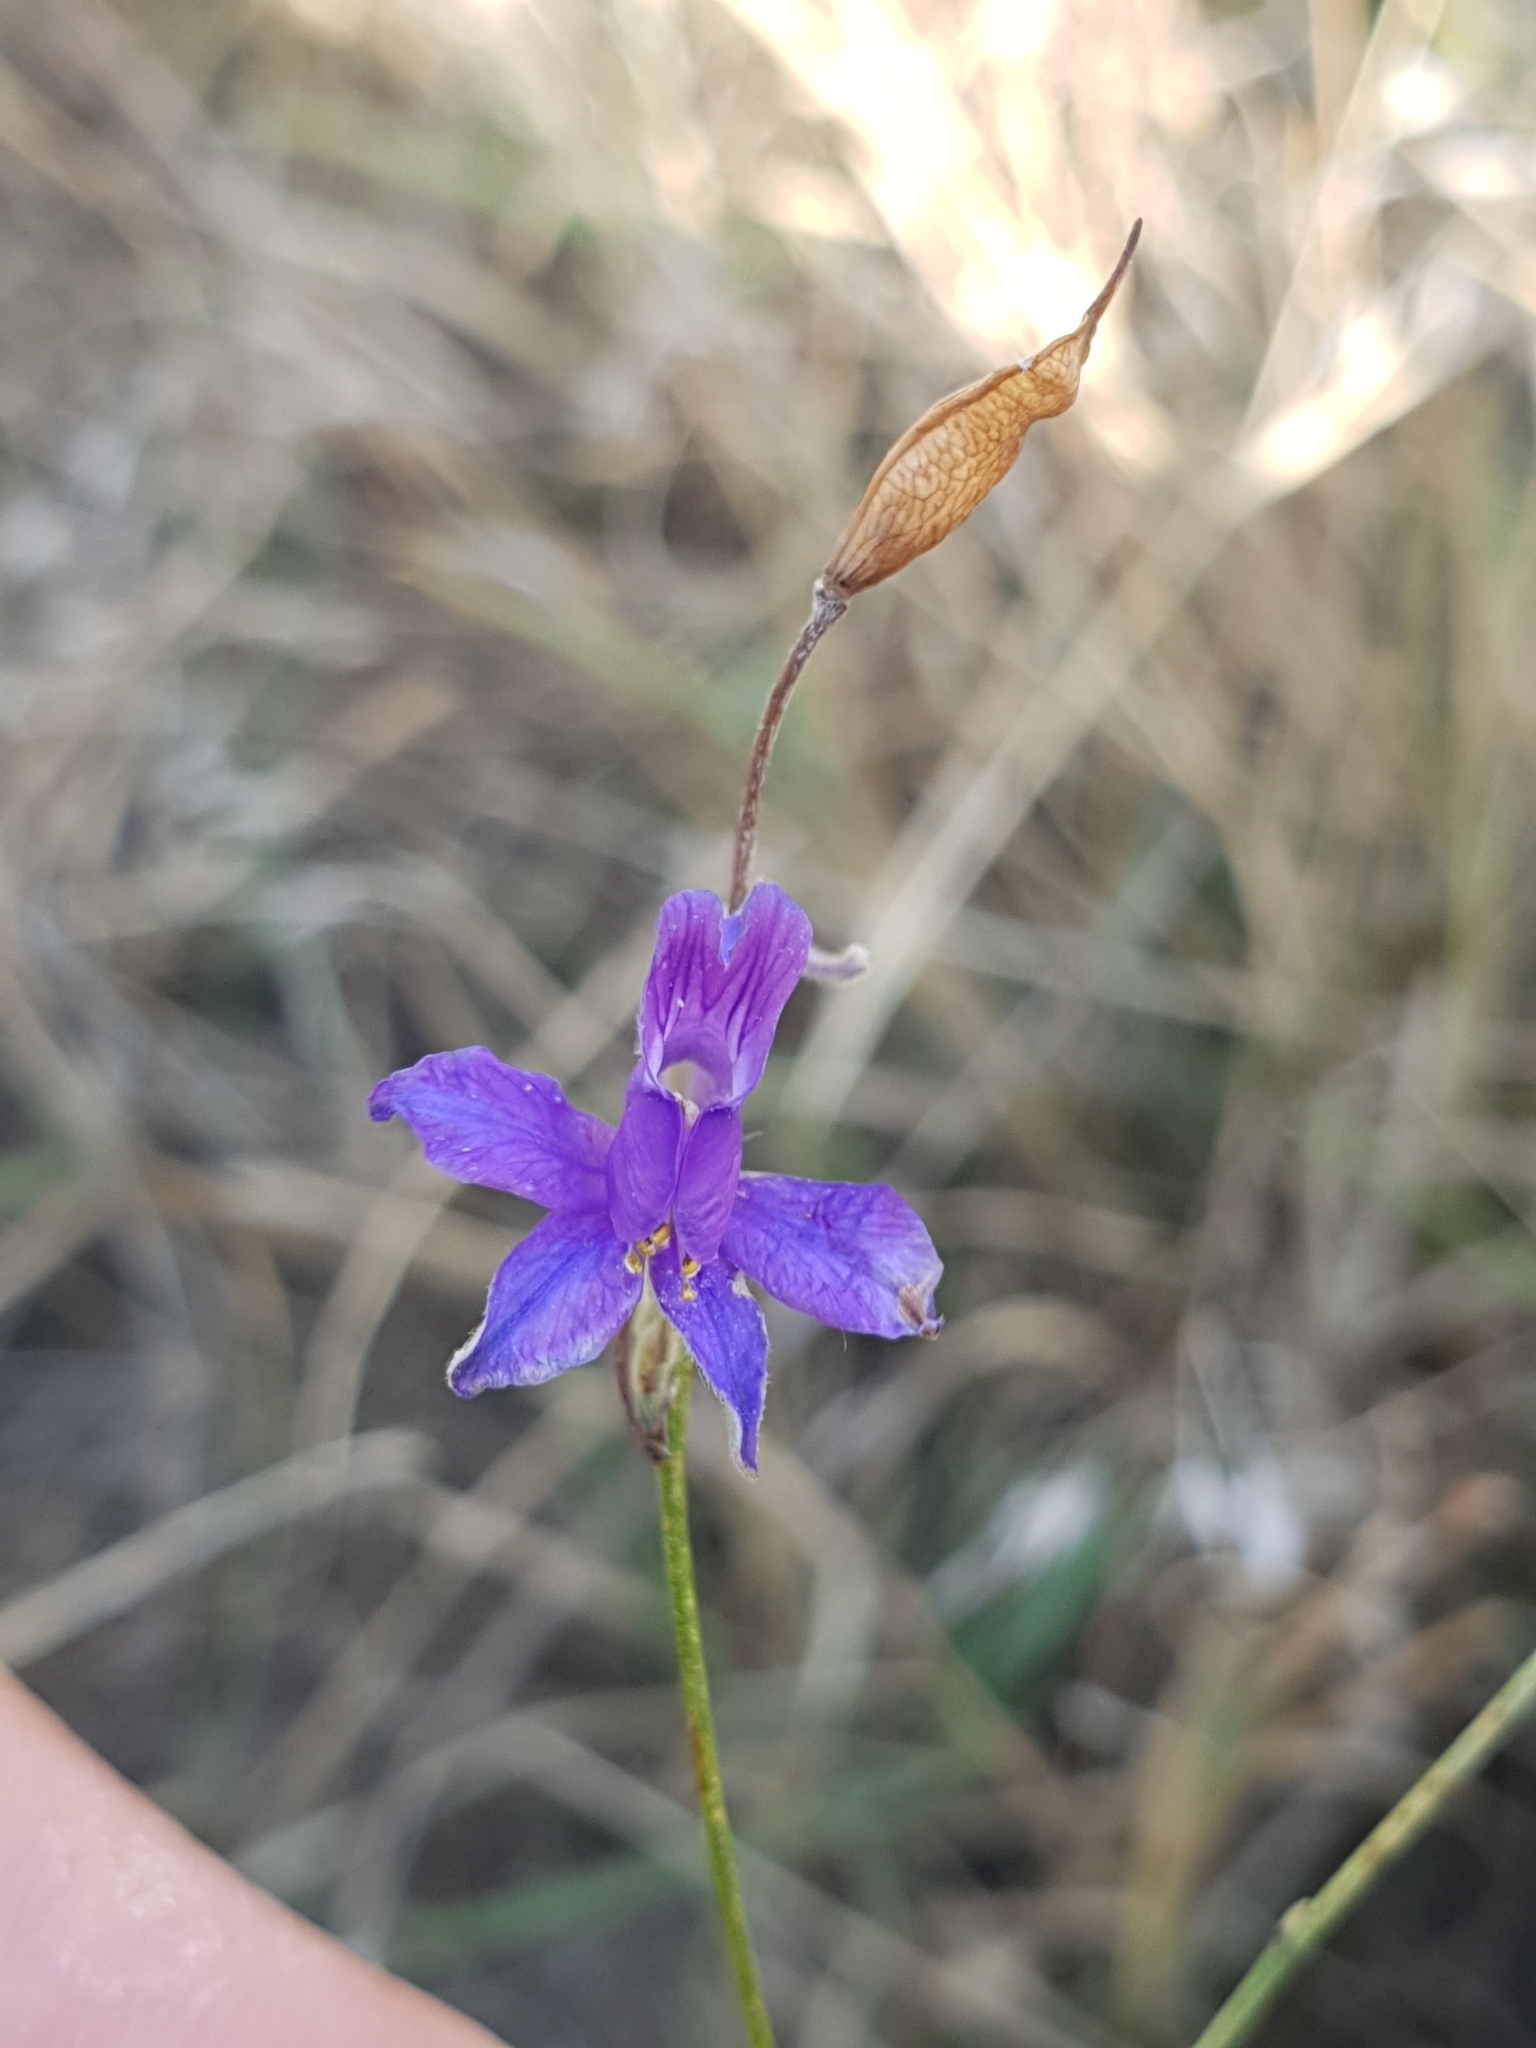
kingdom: Plantae
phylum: Tracheophyta
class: Magnoliopsida
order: Ranunculales
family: Ranunculaceae
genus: Delphinium
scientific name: Delphinium consolida
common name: Branching larkspur
